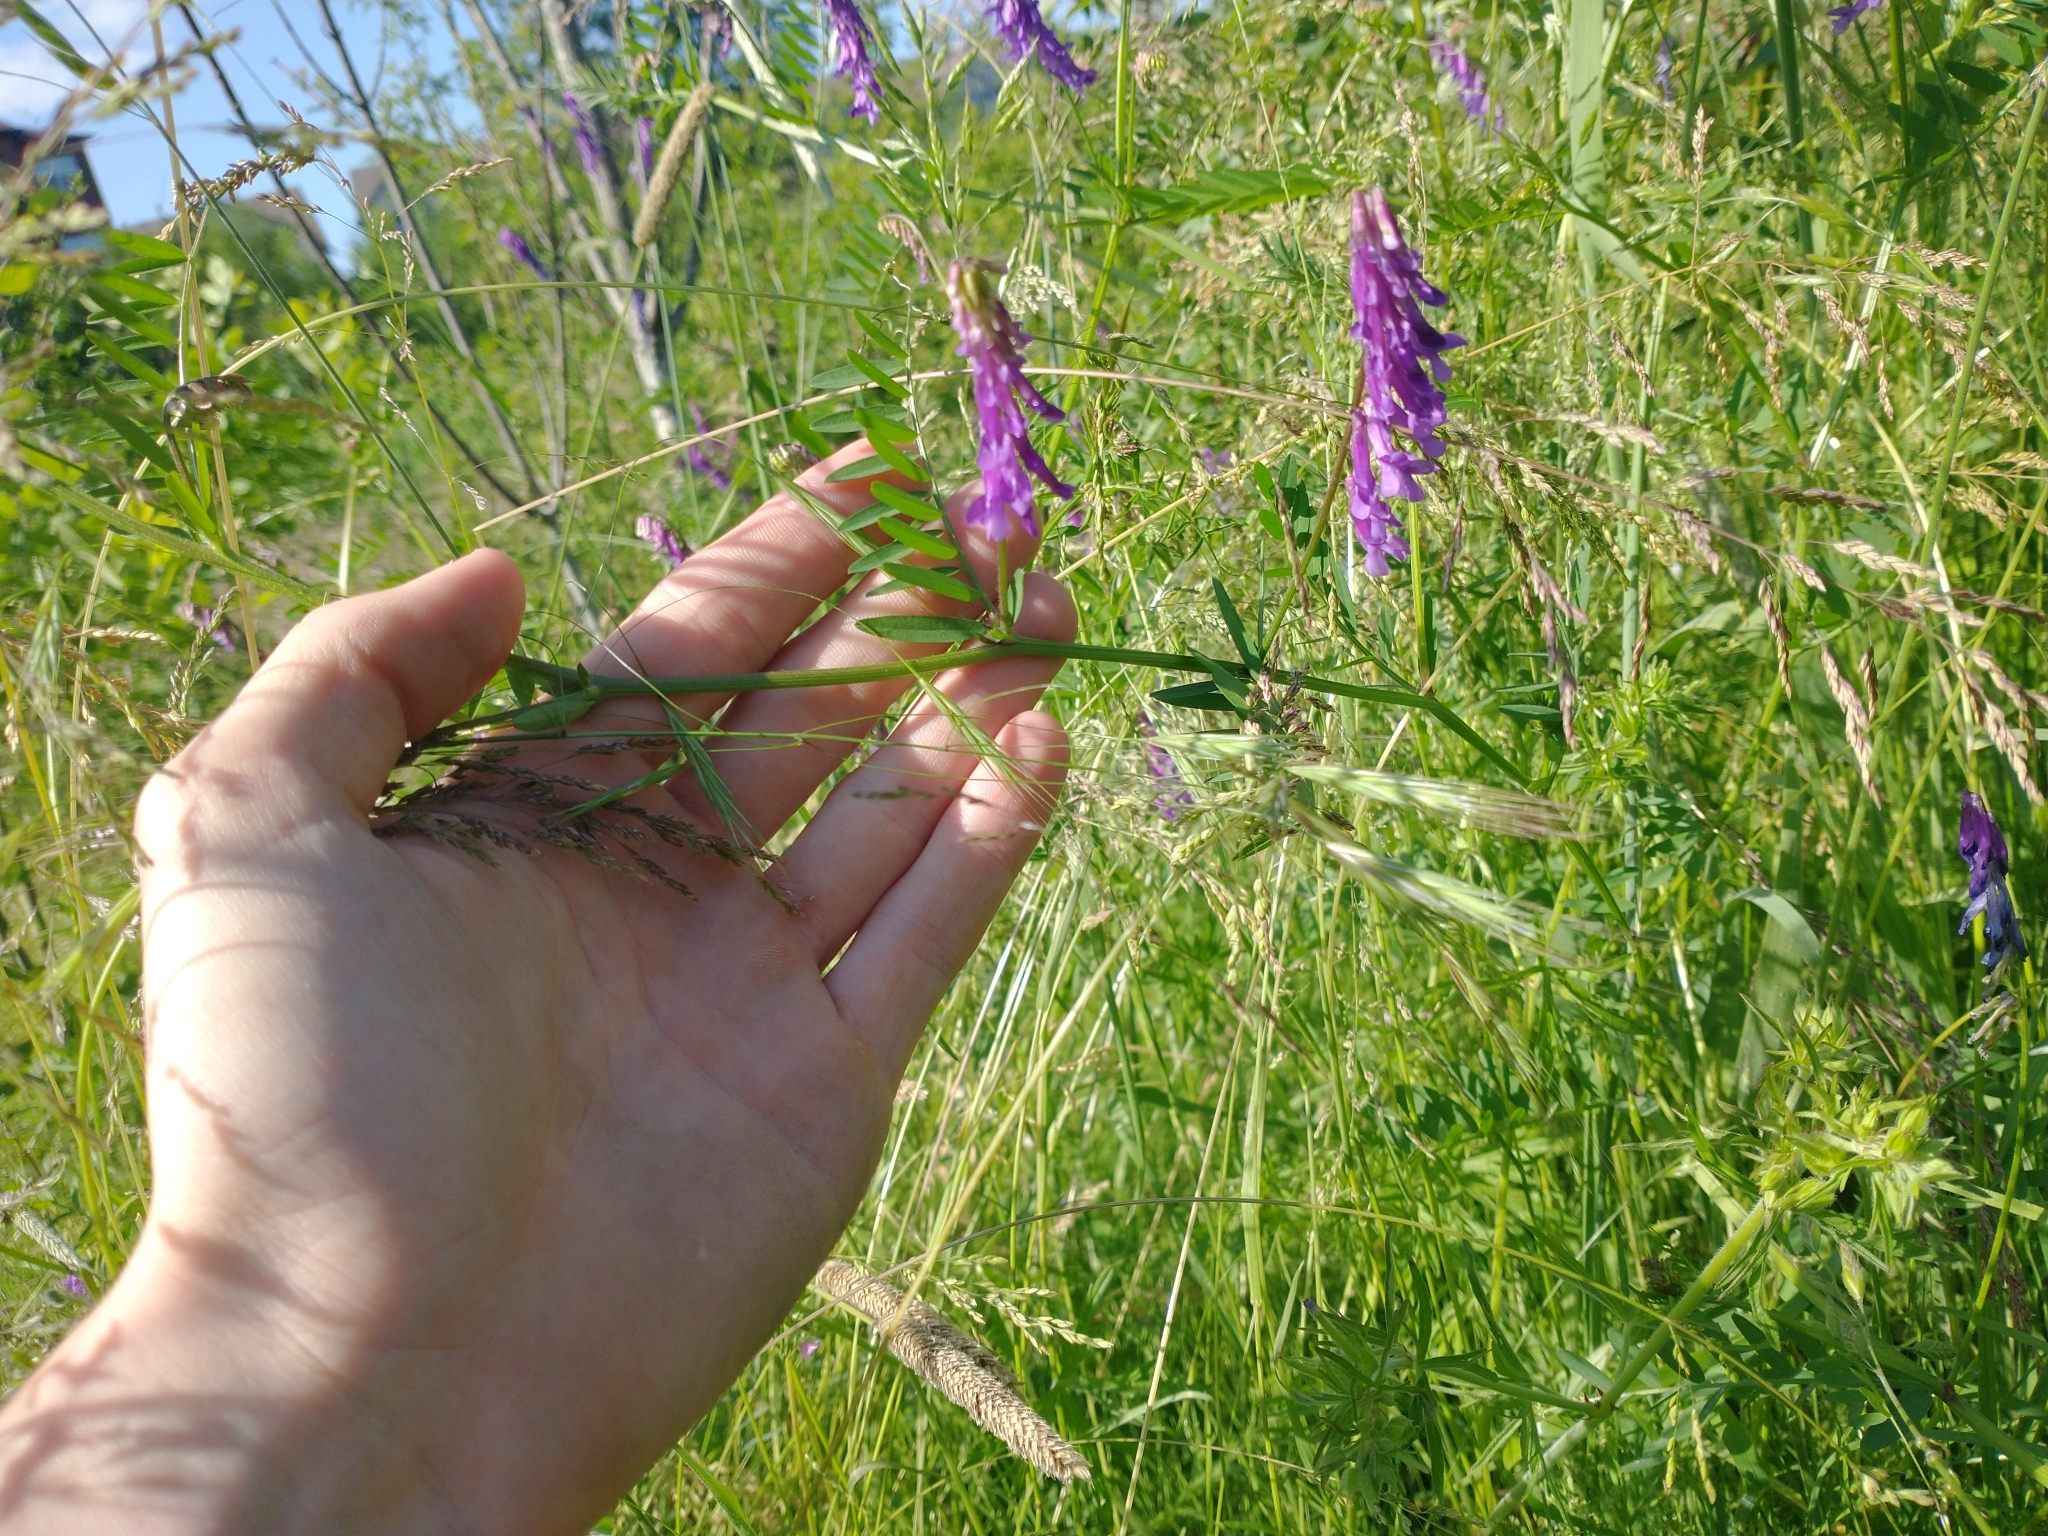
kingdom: Plantae
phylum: Tracheophyta
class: Magnoliopsida
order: Fabales
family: Fabaceae
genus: Vicia
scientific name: Vicia villosa
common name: Fodder vetch
